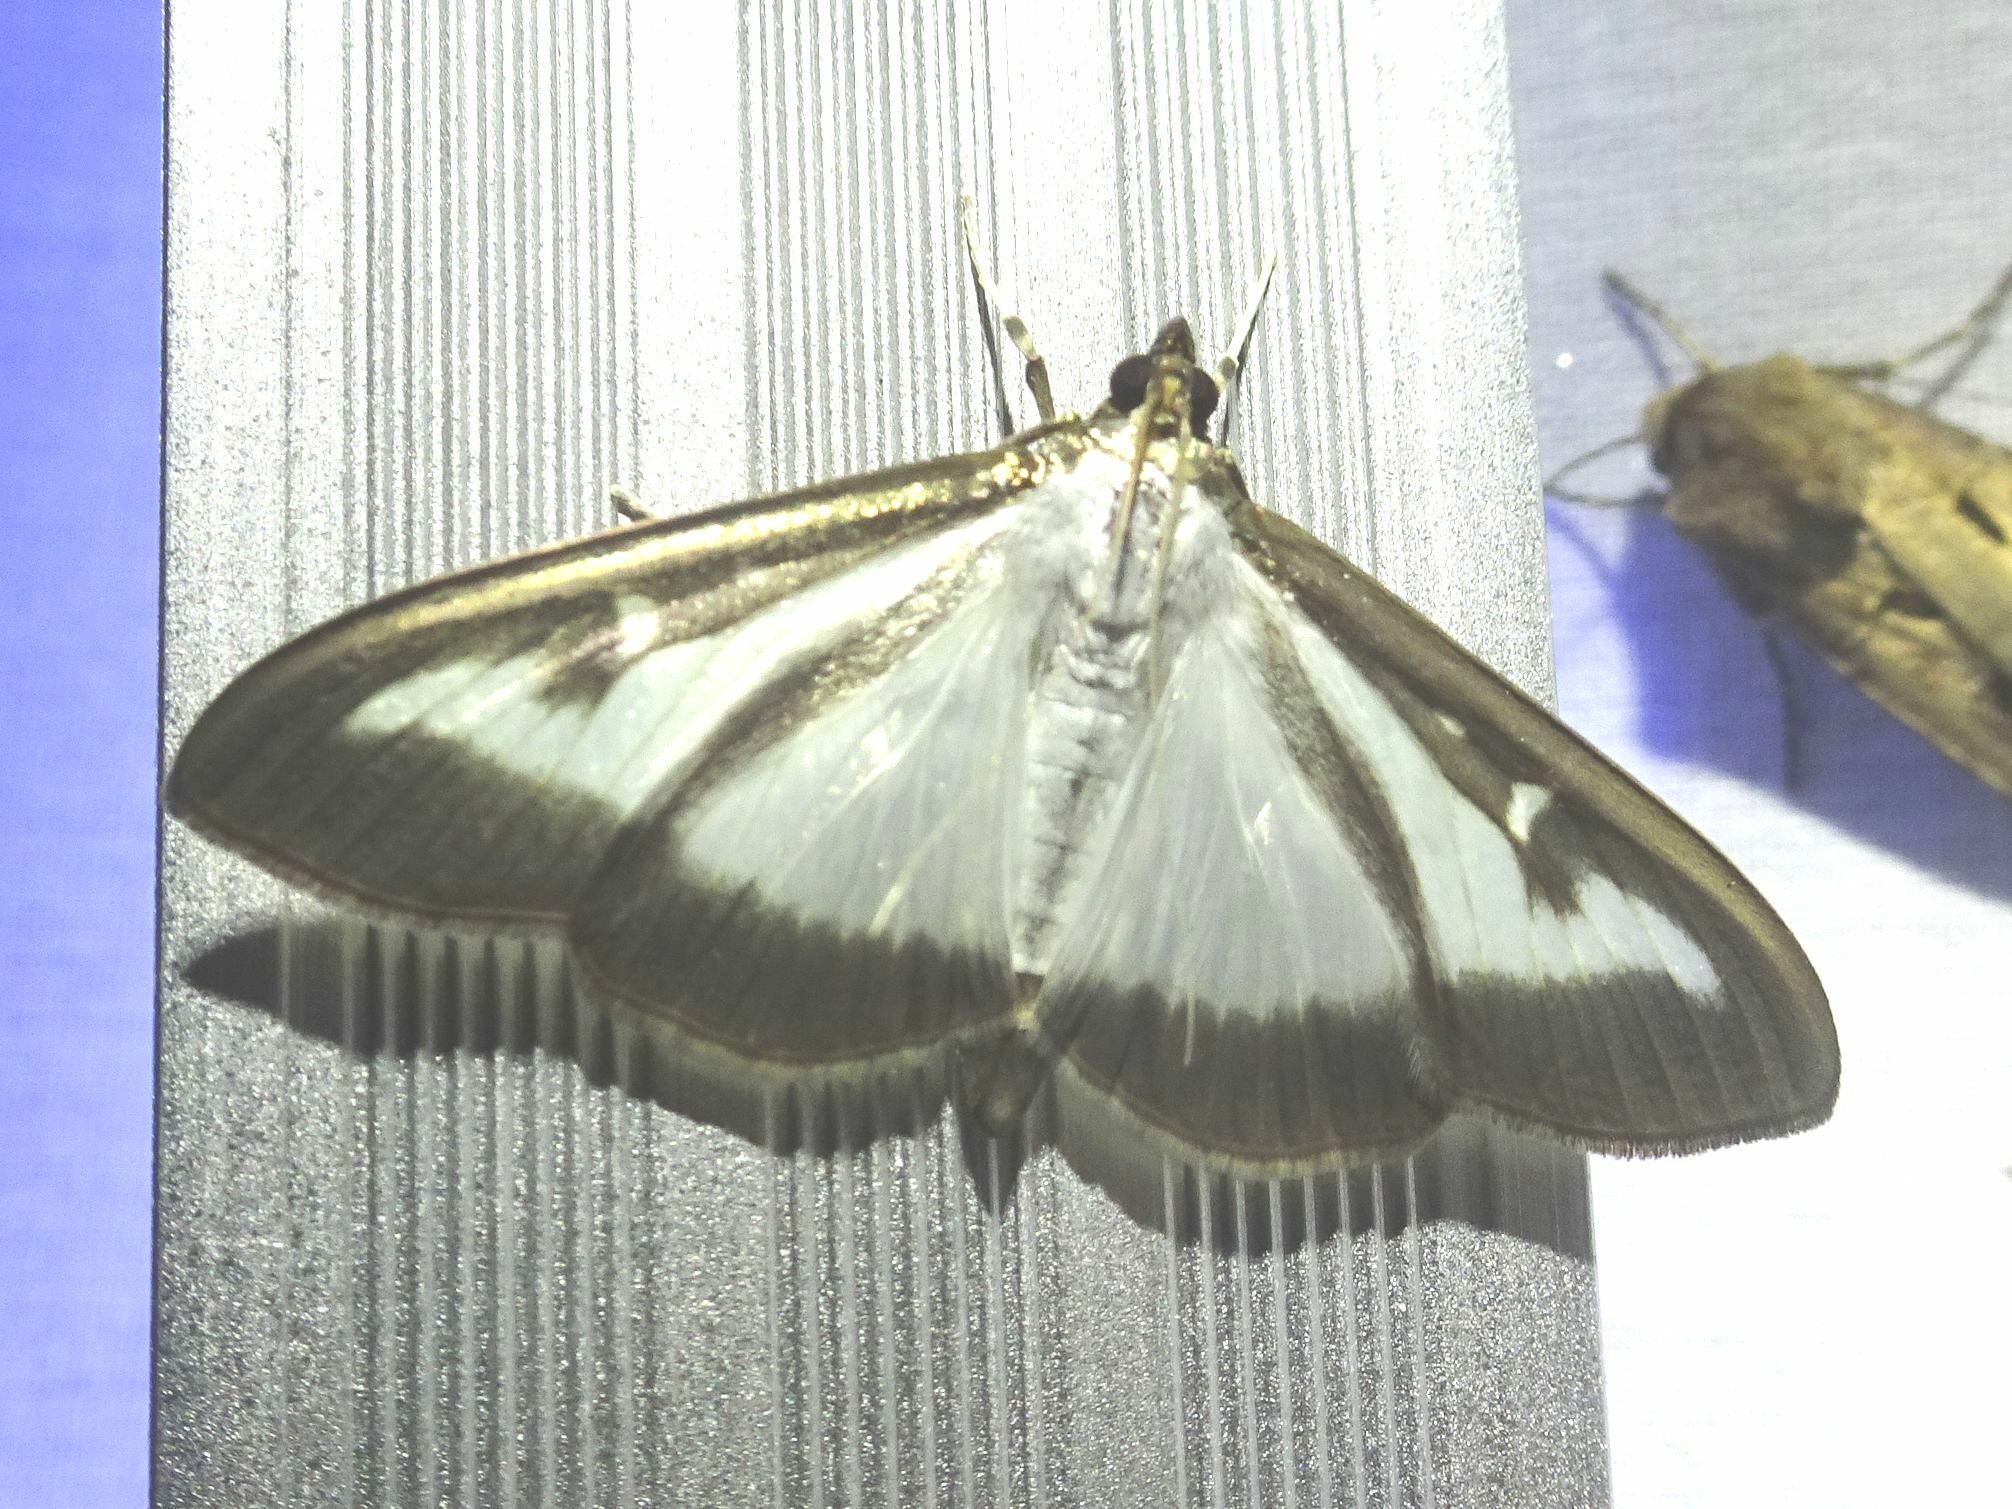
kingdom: Animalia
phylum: Arthropoda
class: Insecta
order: Lepidoptera
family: Crambidae
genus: Cydalima
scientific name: Cydalima perspectalis
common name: Box tree moth
